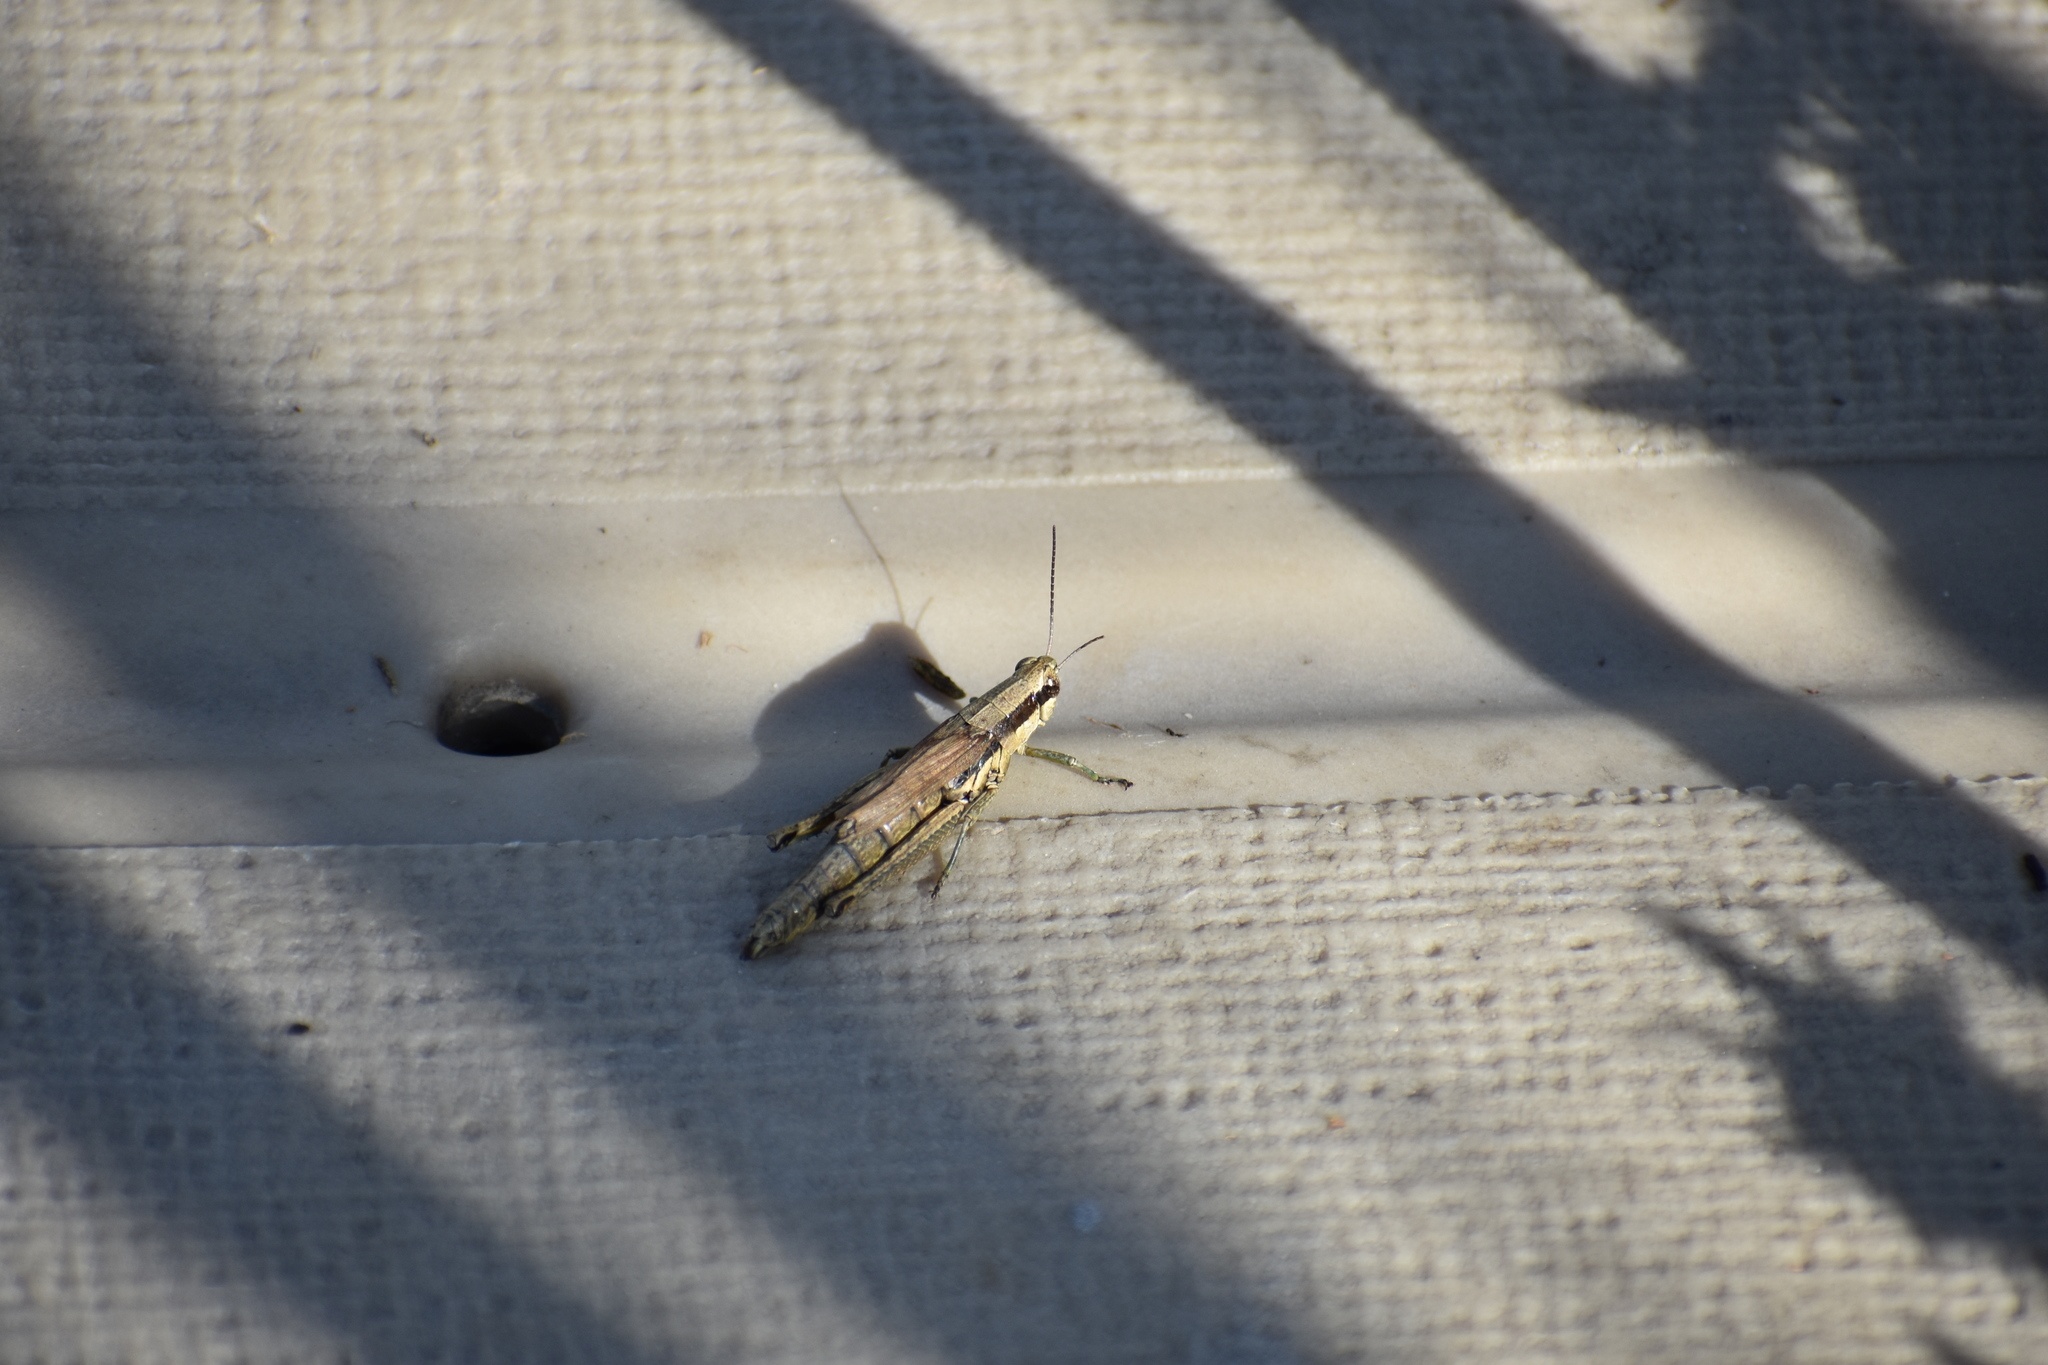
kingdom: Animalia
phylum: Arthropoda
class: Insecta
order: Orthoptera
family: Acrididae
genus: Paroxya
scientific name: Paroxya clavuligera
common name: Olive-green swamp grasshopper
